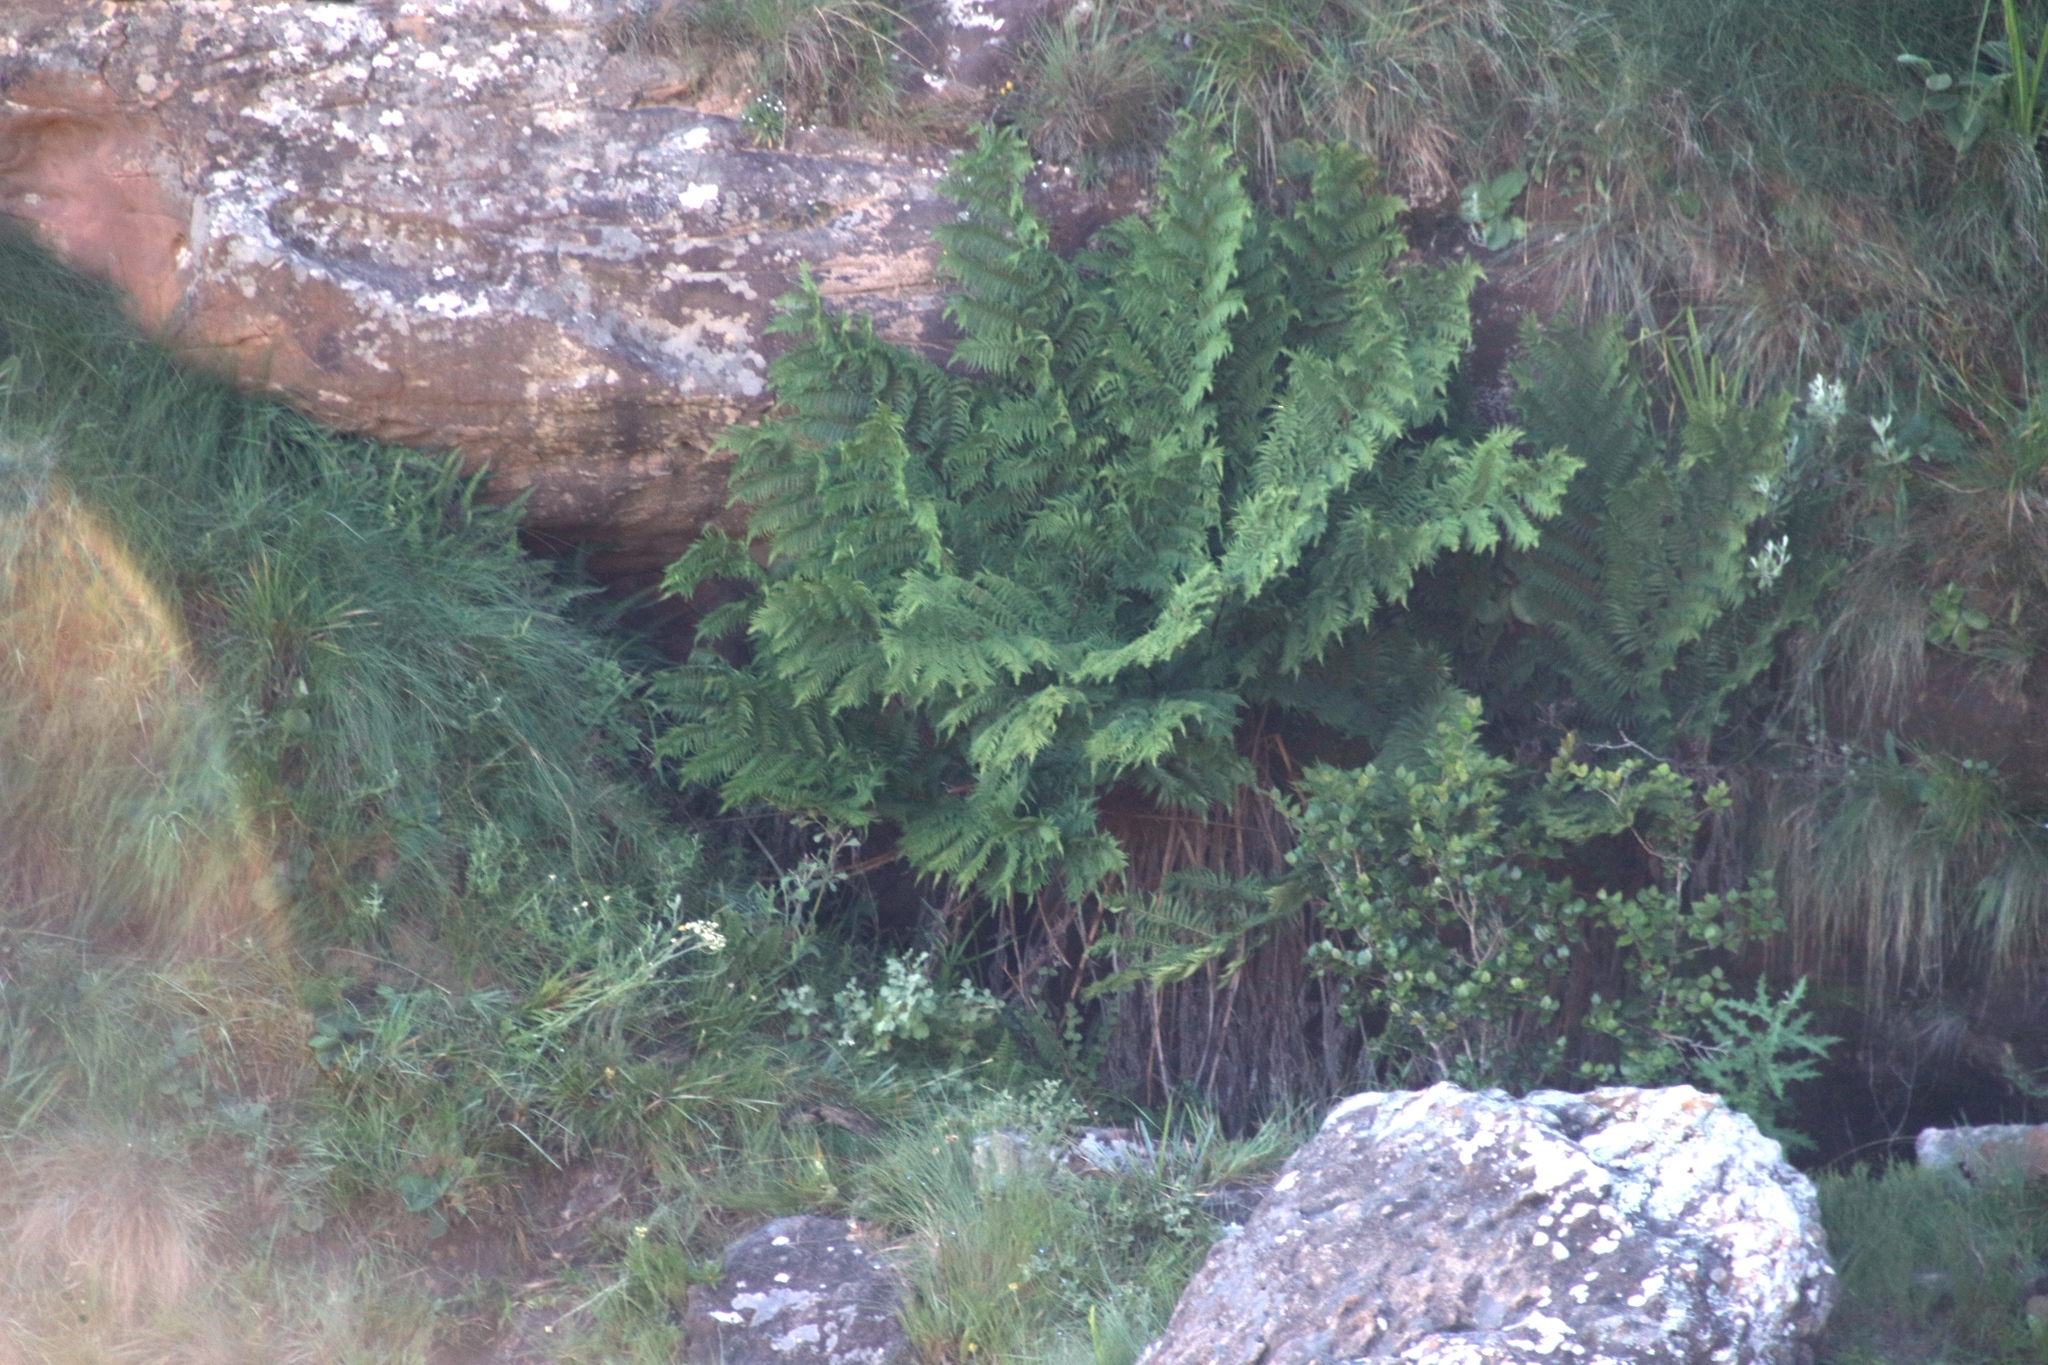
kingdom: Plantae
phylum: Tracheophyta
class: Polypodiopsida
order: Cyatheales
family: Cyatheaceae
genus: Alsophila
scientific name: Alsophila dregei
